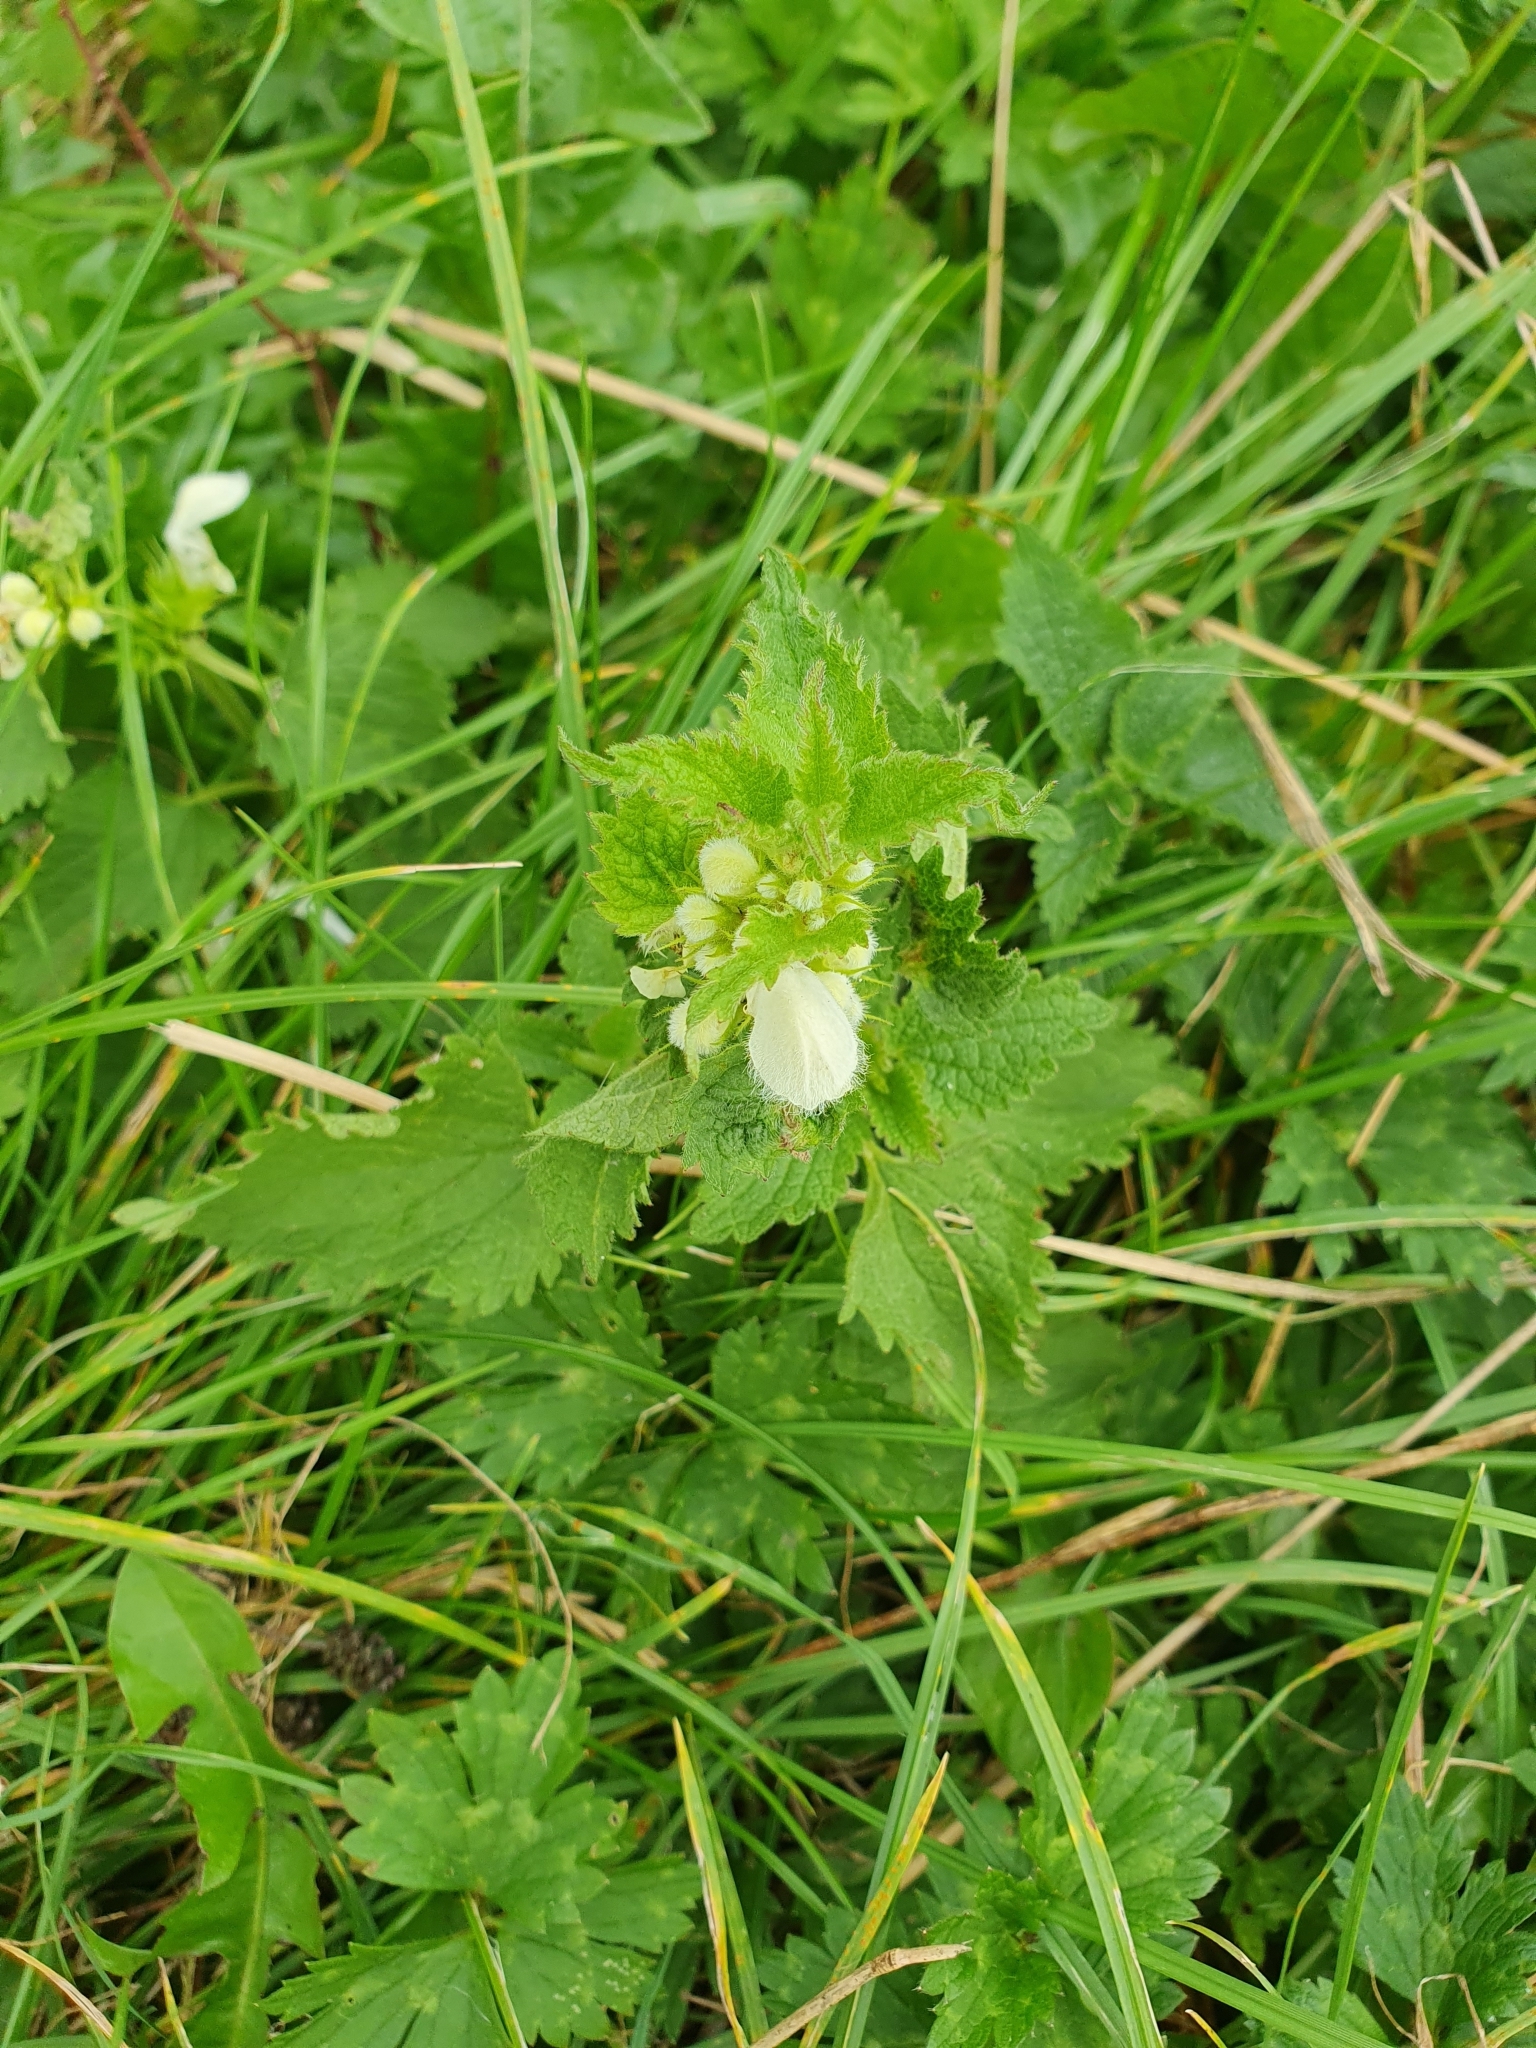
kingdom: Plantae
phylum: Tracheophyta
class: Magnoliopsida
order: Lamiales
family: Lamiaceae
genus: Lamium
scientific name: Lamium album
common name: White dead-nettle
